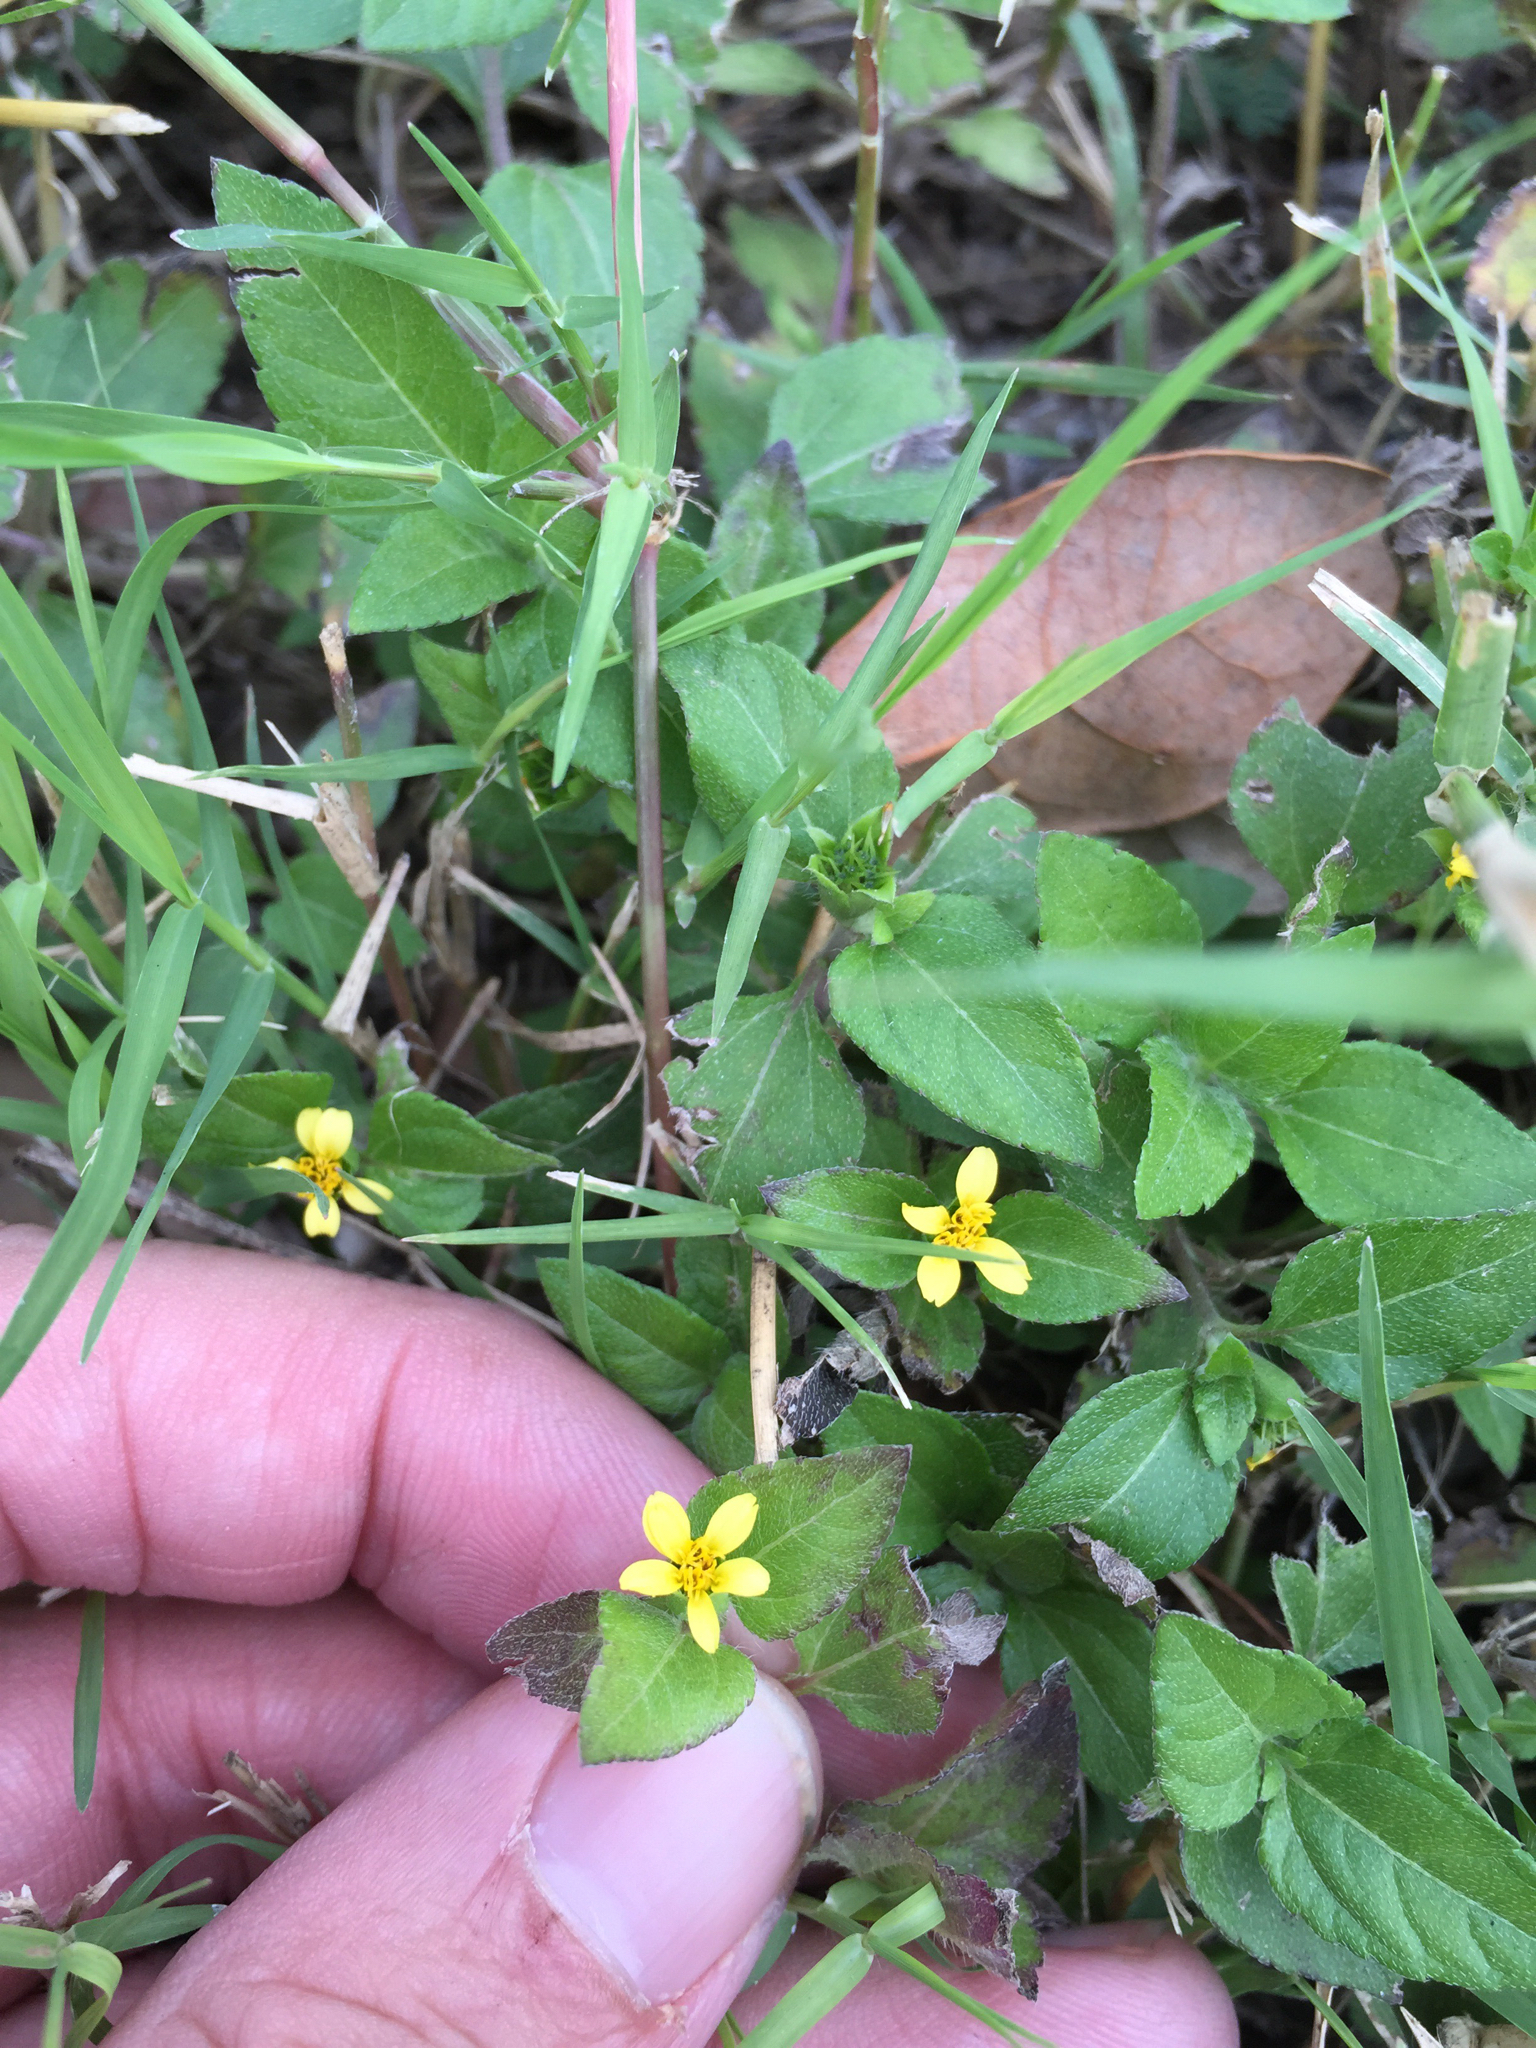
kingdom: Plantae
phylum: Tracheophyta
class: Magnoliopsida
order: Asterales
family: Asteraceae
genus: Calyptocarpus
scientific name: Calyptocarpus vialis
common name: Straggler daisy
